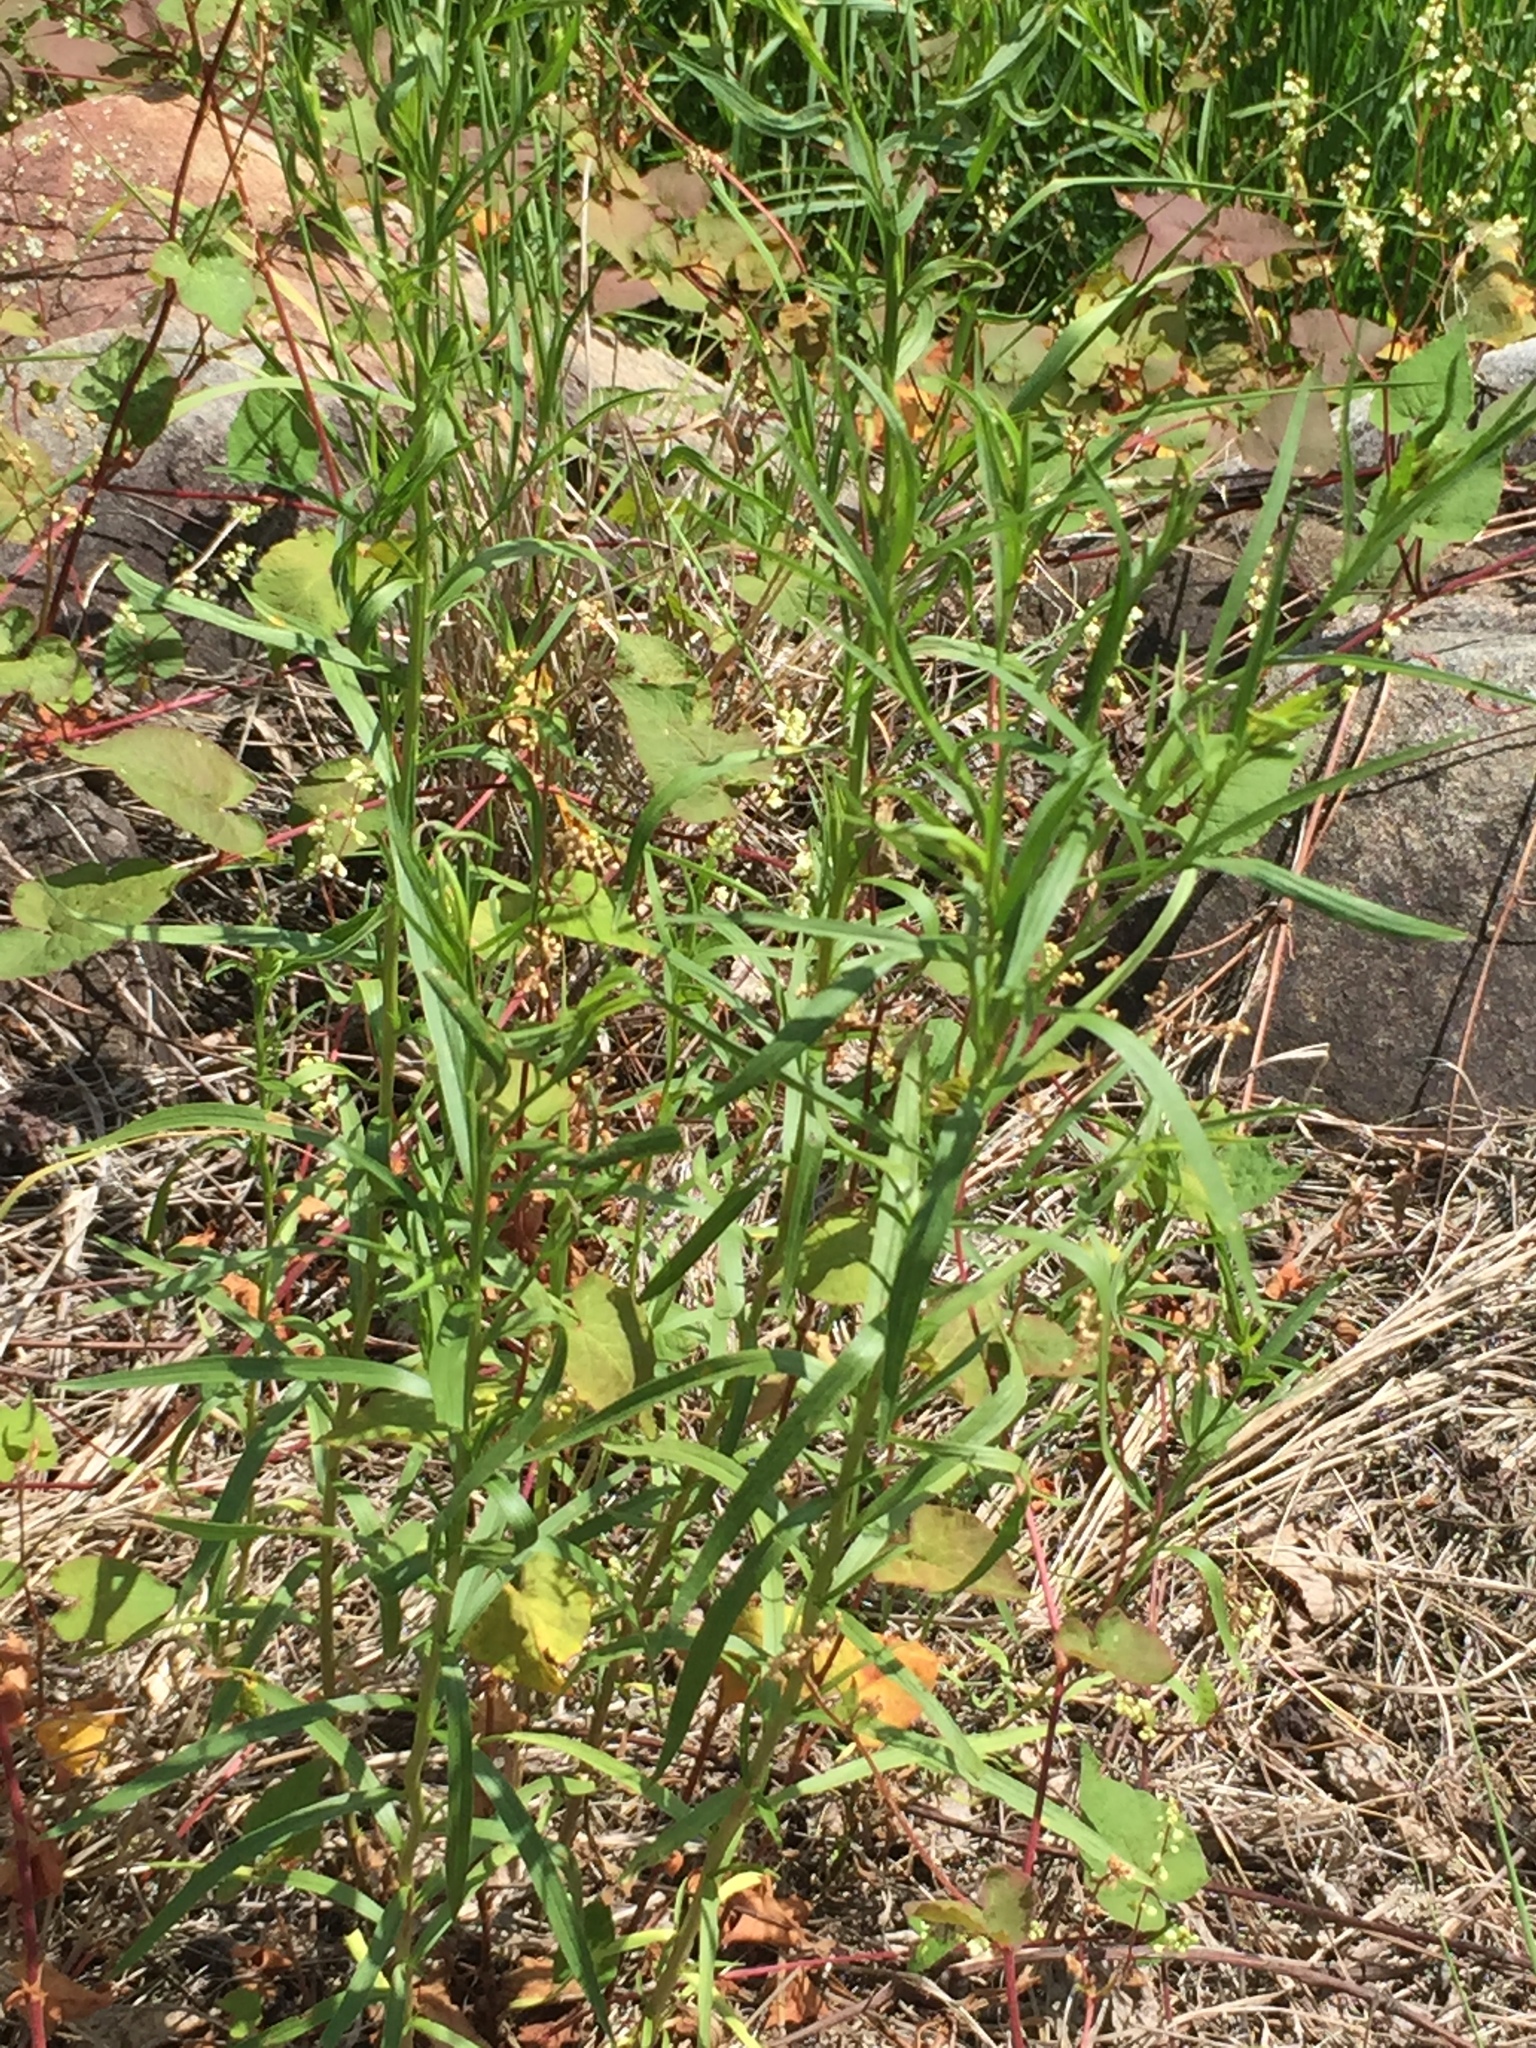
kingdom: Plantae
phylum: Tracheophyta
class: Magnoliopsida
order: Asterales
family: Asteraceae
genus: Euthamia
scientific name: Euthamia graminifolia
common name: Common goldentop
